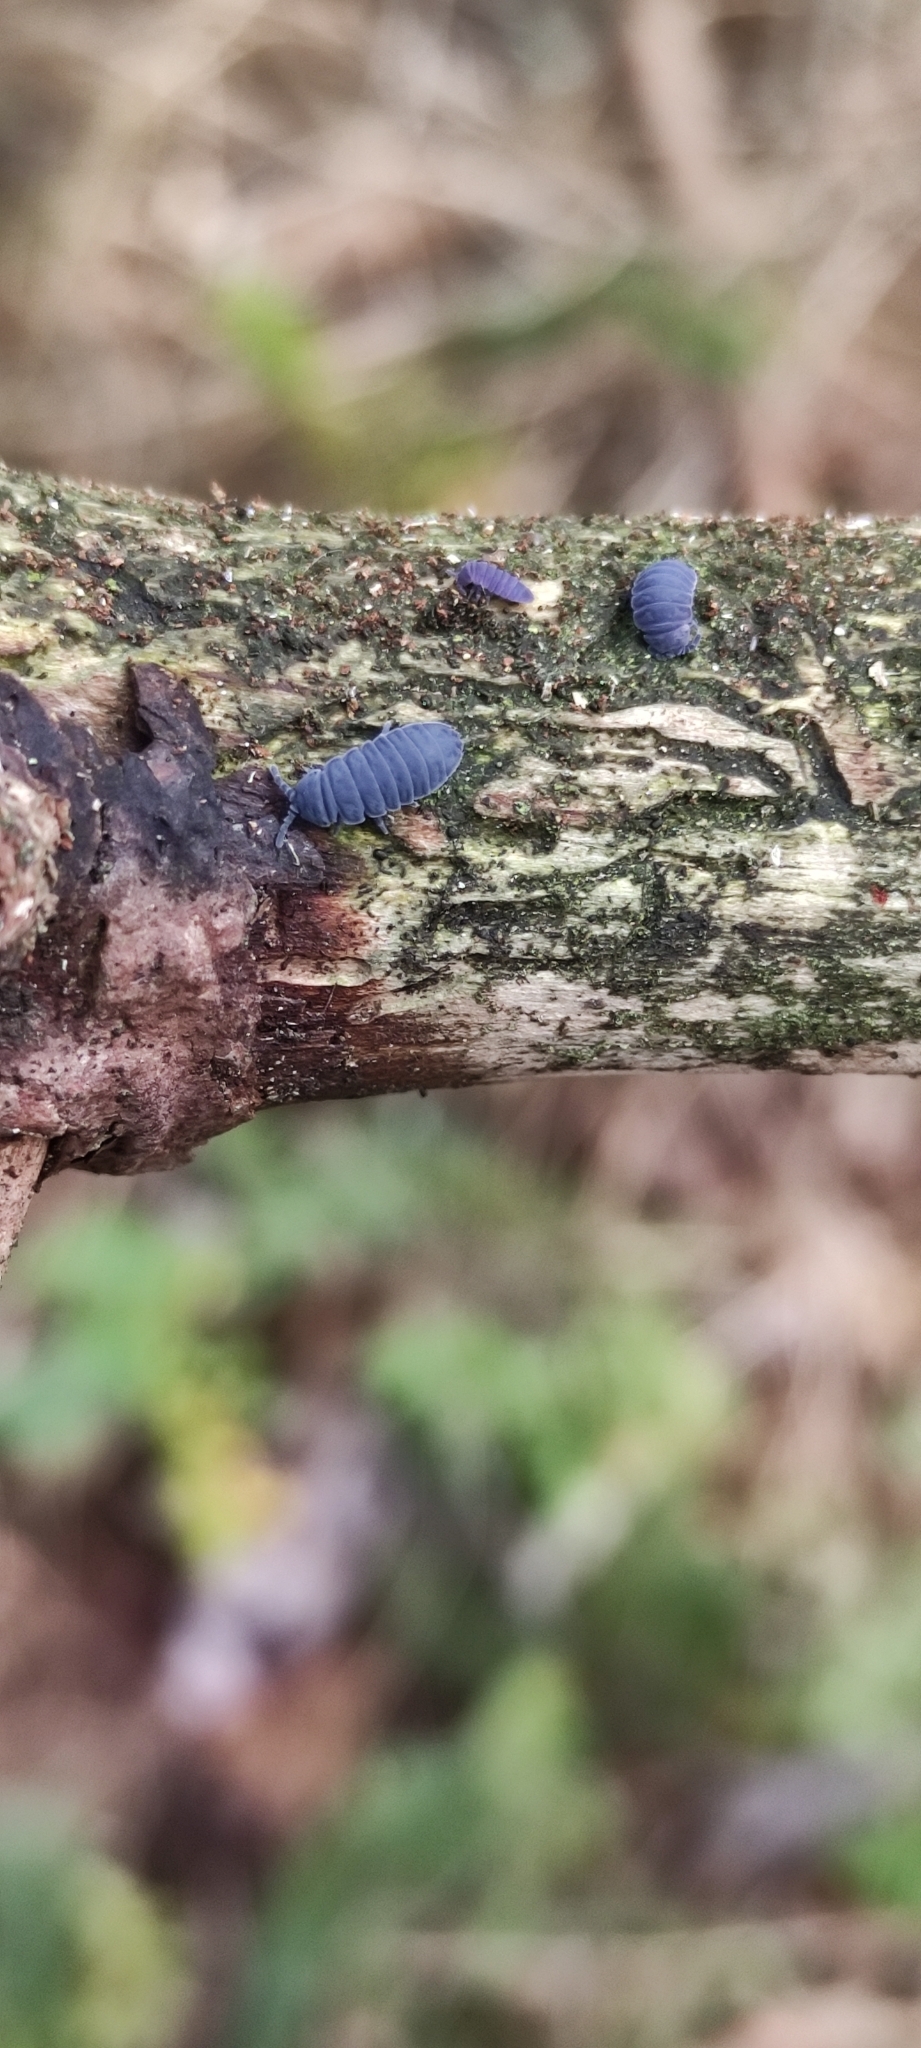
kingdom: Animalia
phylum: Arthropoda
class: Collembola
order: Poduromorpha
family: Onychiuridae
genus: Tetrodontophora
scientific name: Tetrodontophora bielanensis
